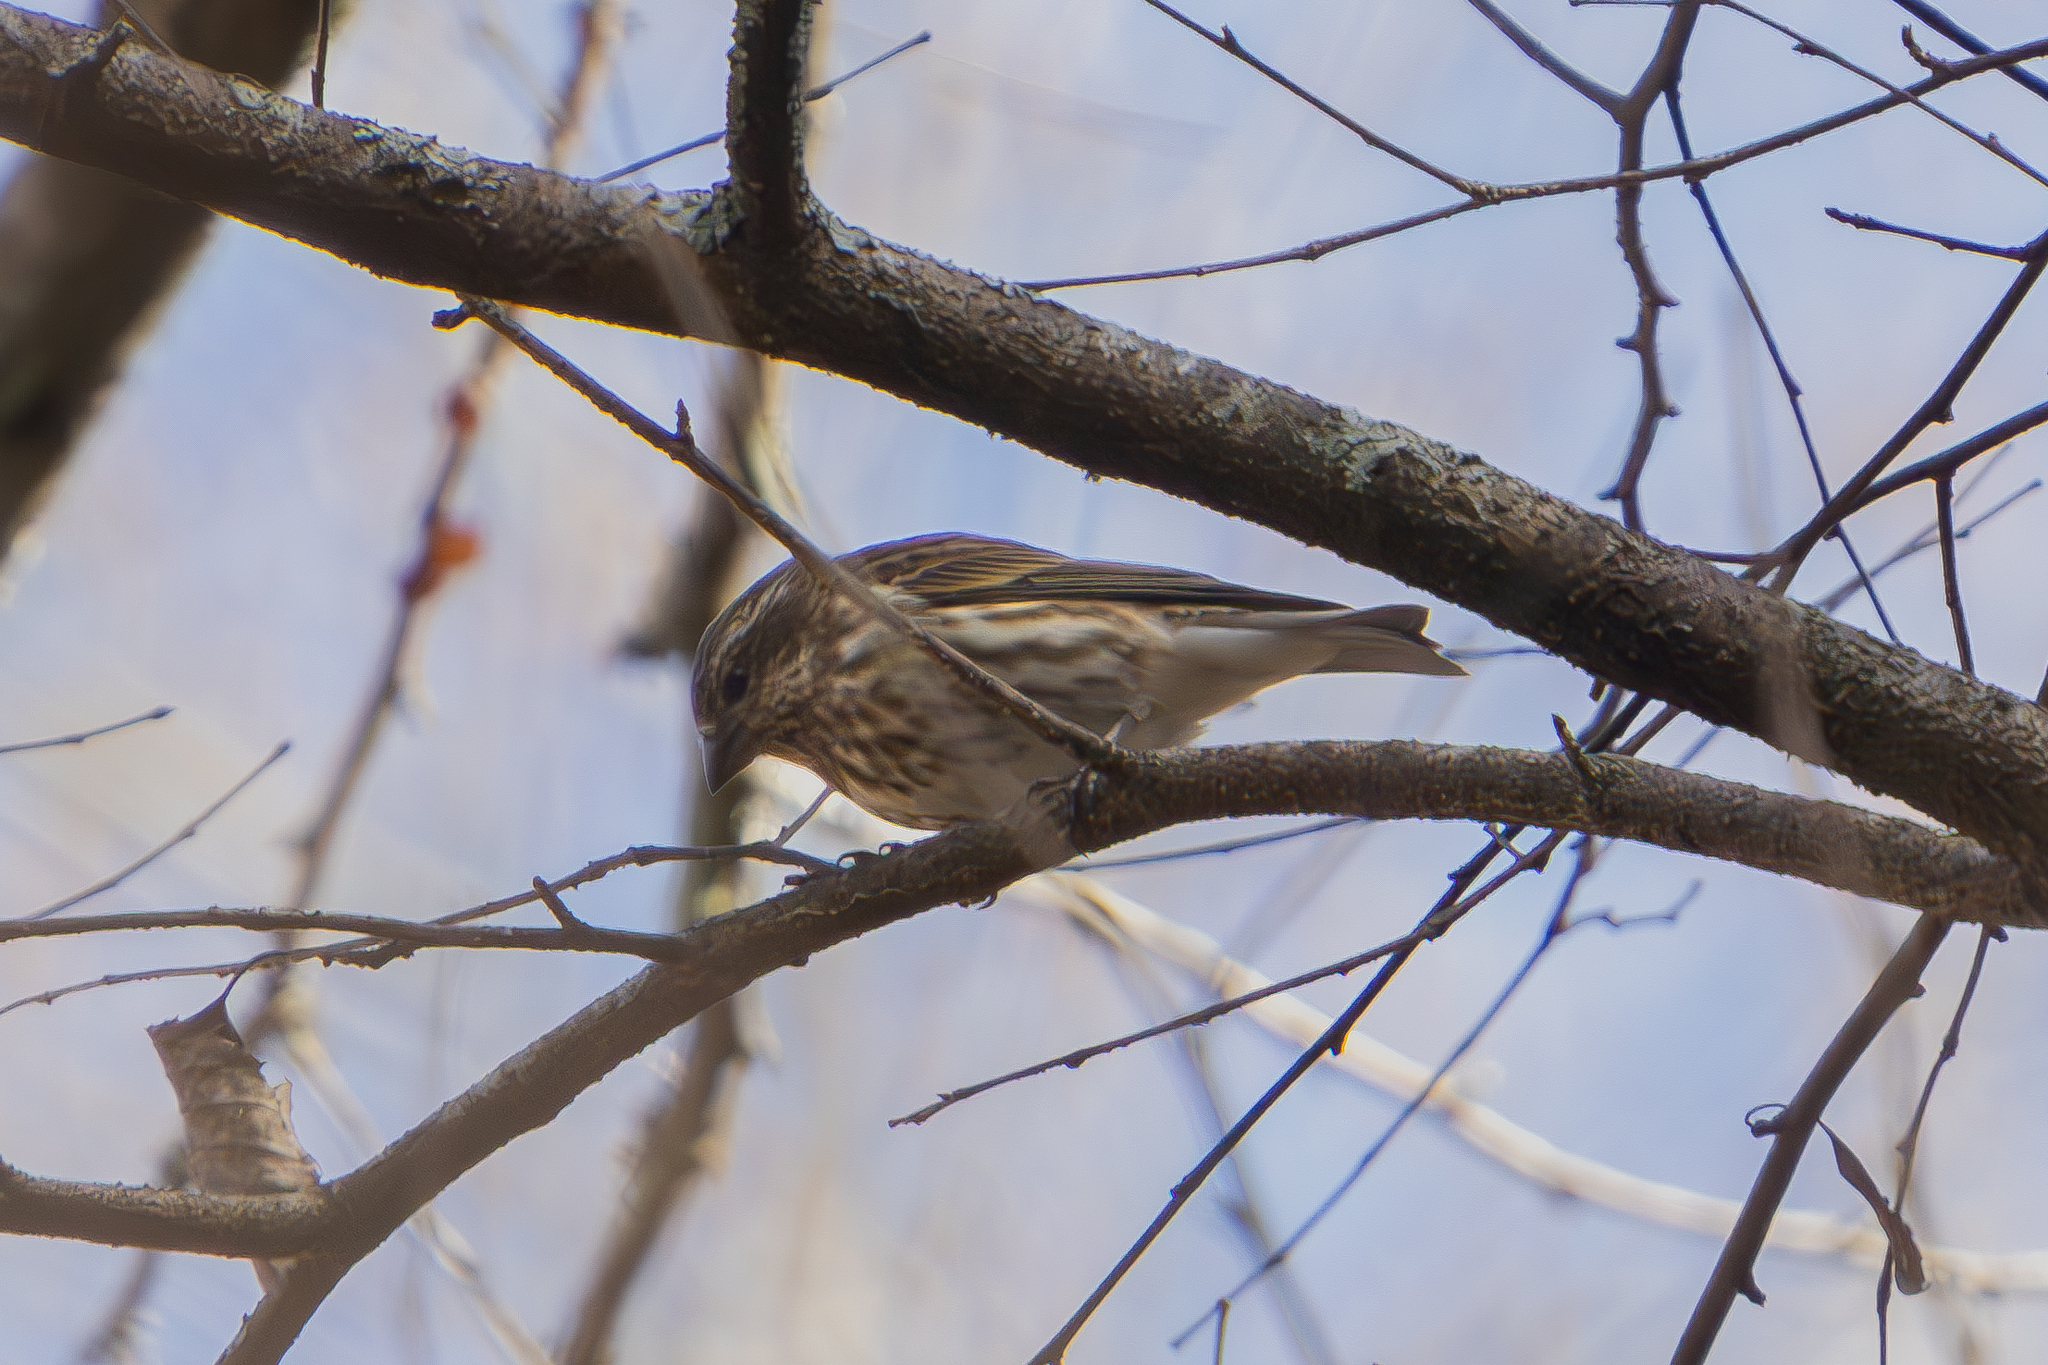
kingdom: Animalia
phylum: Chordata
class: Aves
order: Passeriformes
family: Fringillidae
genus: Haemorhous
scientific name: Haemorhous purpureus
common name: Purple finch
